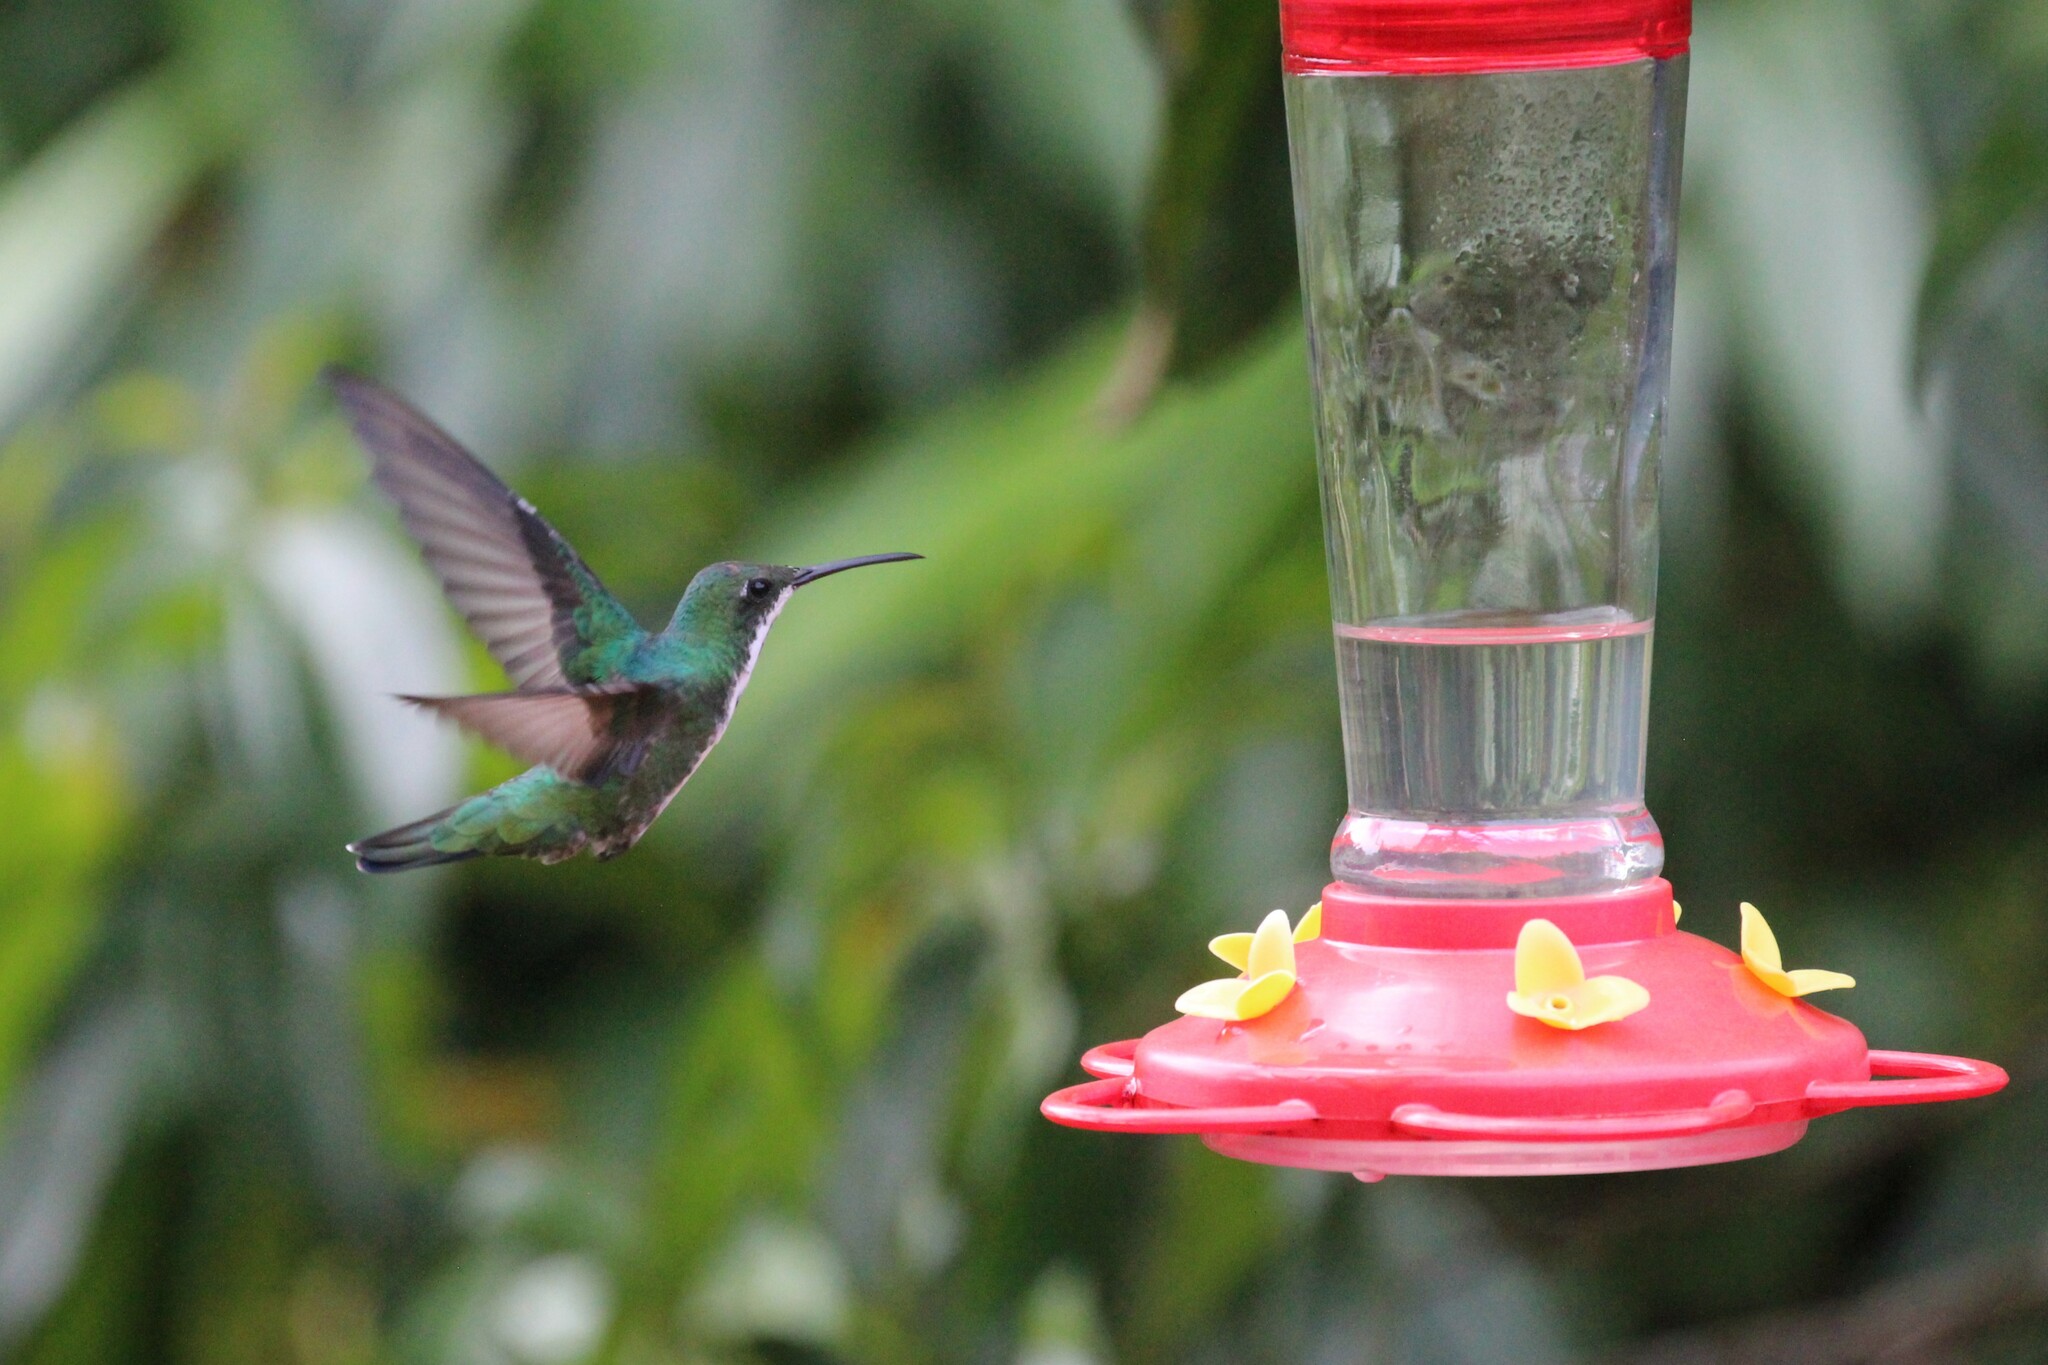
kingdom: Animalia
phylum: Chordata
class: Aves
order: Apodiformes
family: Trochilidae
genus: Anthracothorax
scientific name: Anthracothorax nigricollis
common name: Black-throated mango
